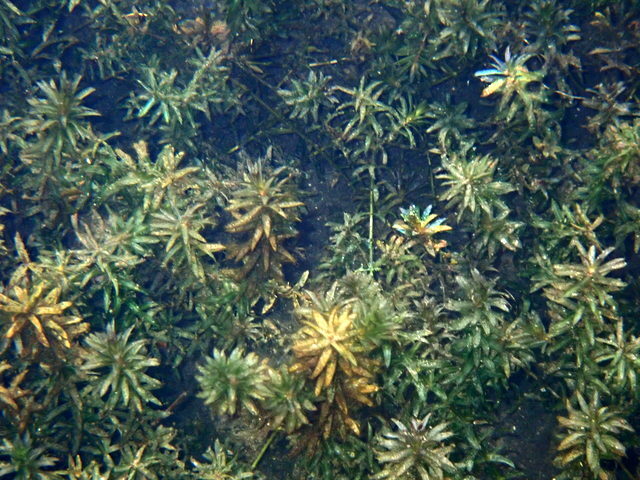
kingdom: Plantae
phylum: Tracheophyta
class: Liliopsida
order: Alismatales
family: Hydrocharitaceae
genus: Hydrilla
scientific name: Hydrilla verticillata
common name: Florida-elodea
